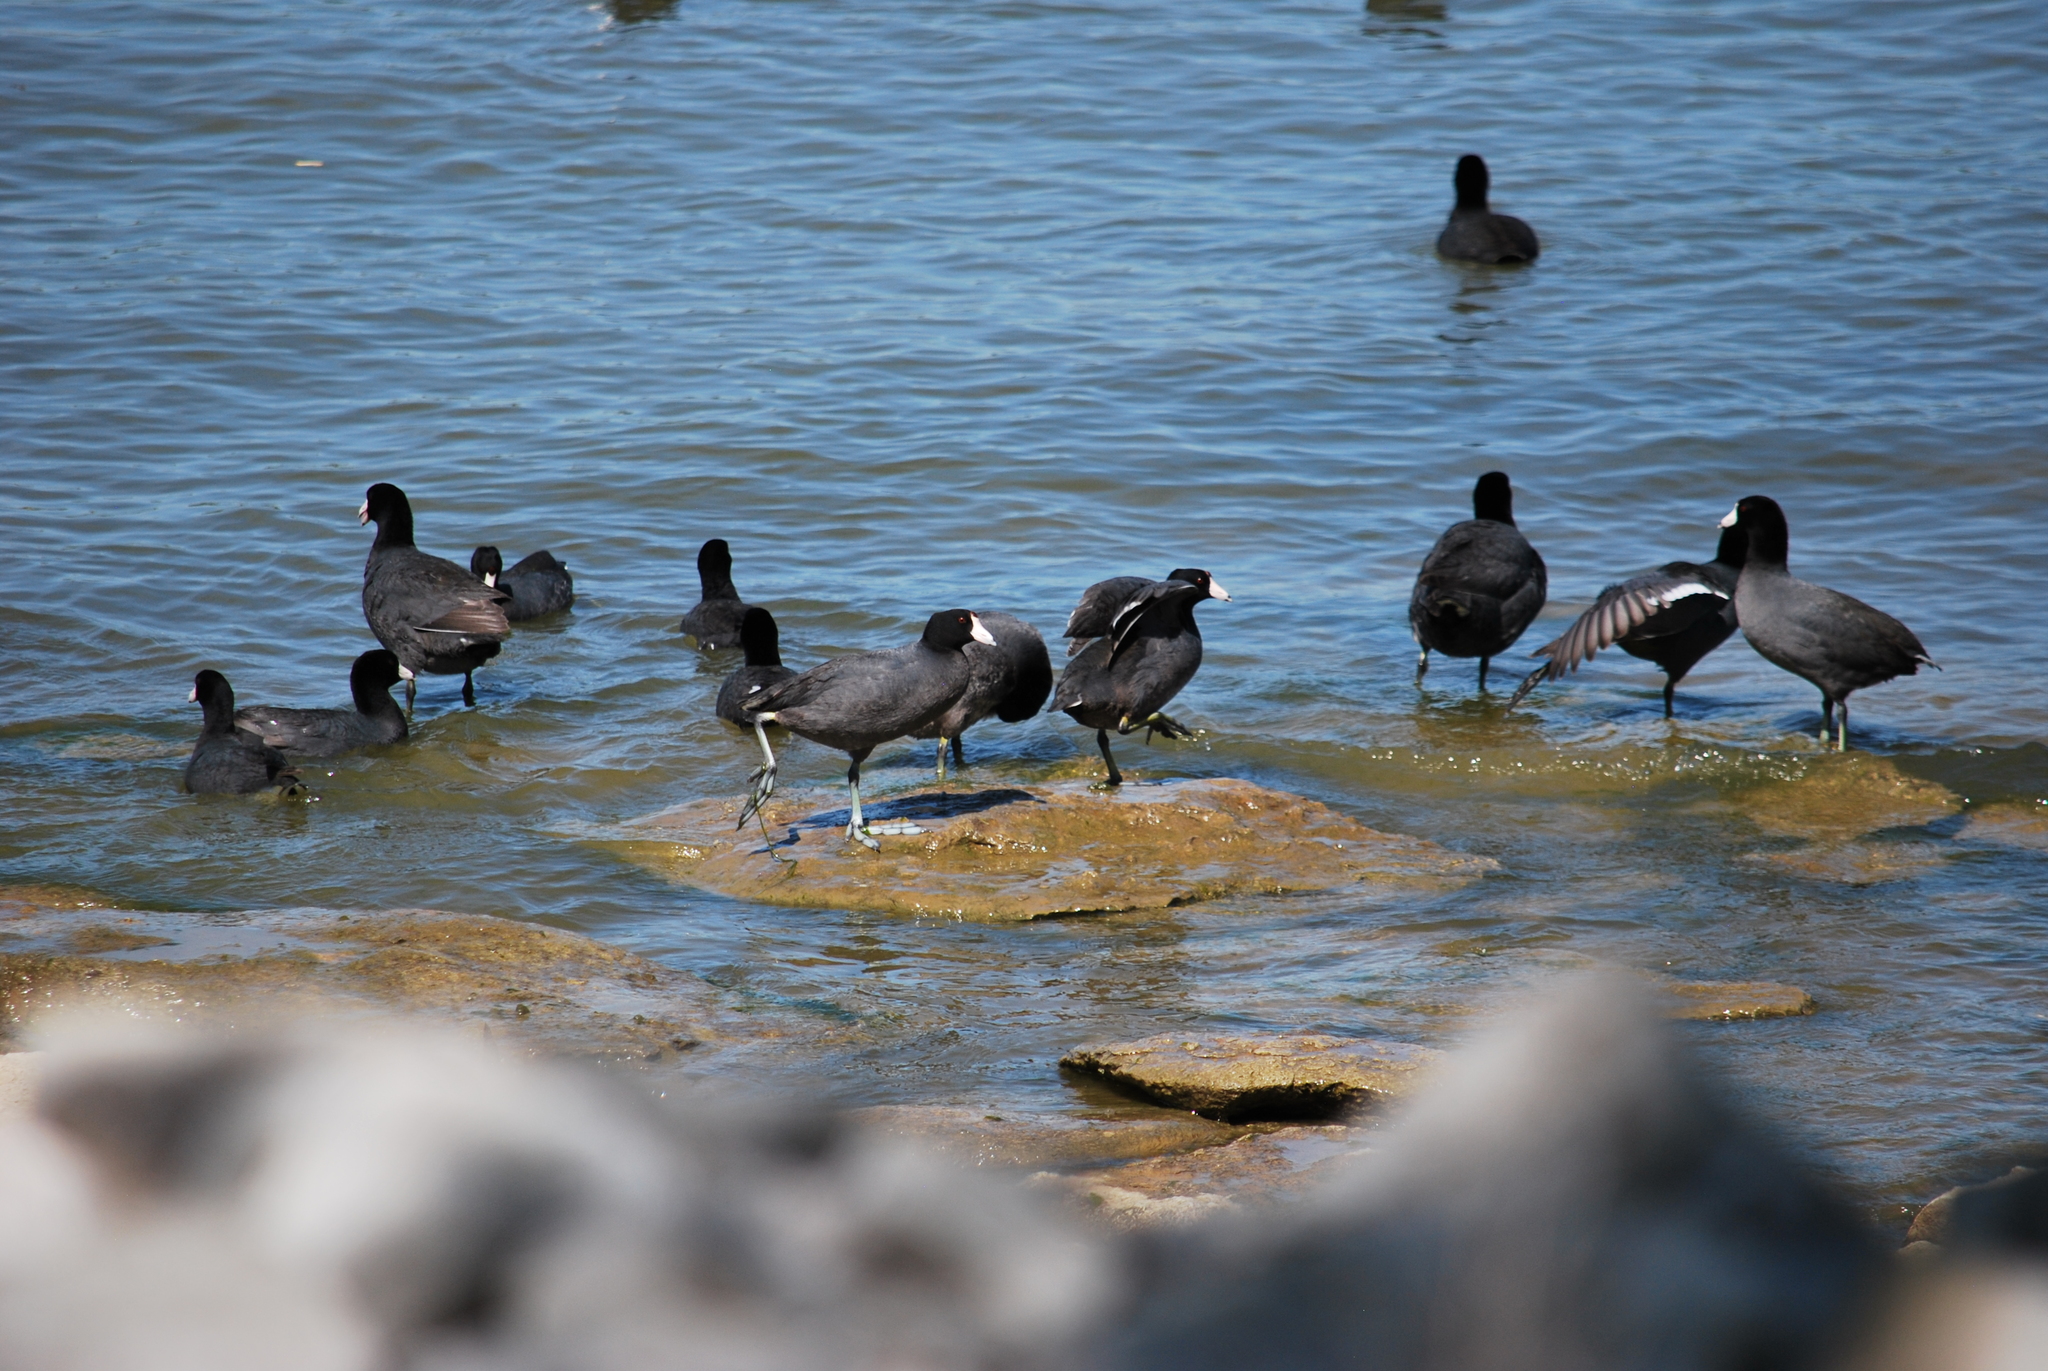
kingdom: Animalia
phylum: Chordata
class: Aves
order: Gruiformes
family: Rallidae
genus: Fulica
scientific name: Fulica americana
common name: American coot
